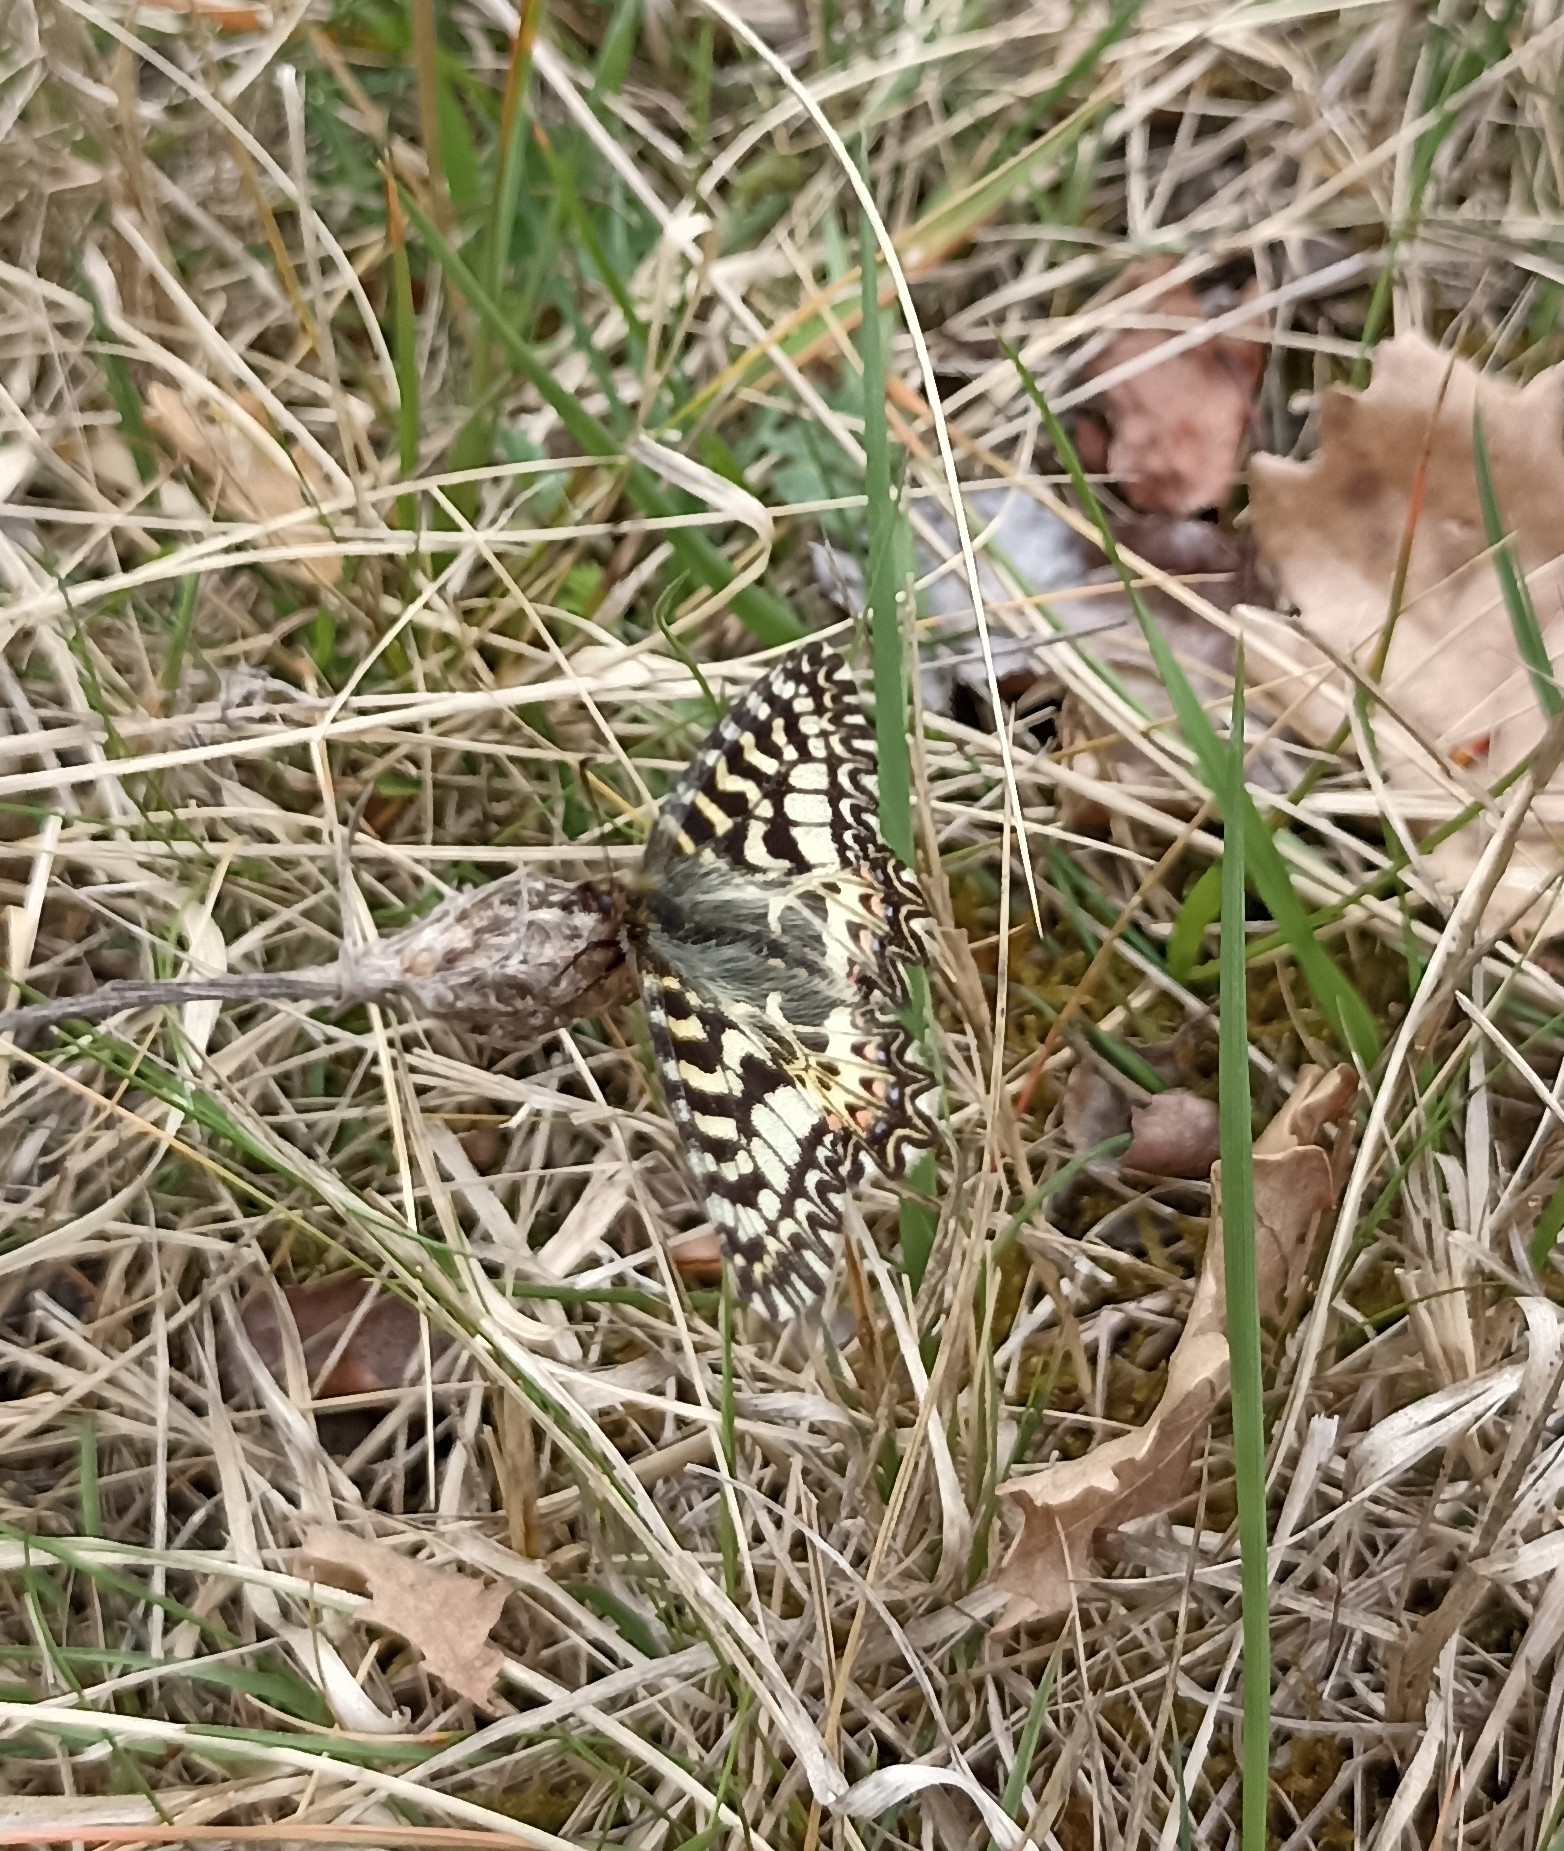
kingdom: Animalia
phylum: Arthropoda
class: Insecta
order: Lepidoptera
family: Papilionidae
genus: Zerynthia
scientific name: Zerynthia polyxena
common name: Southern festoon
